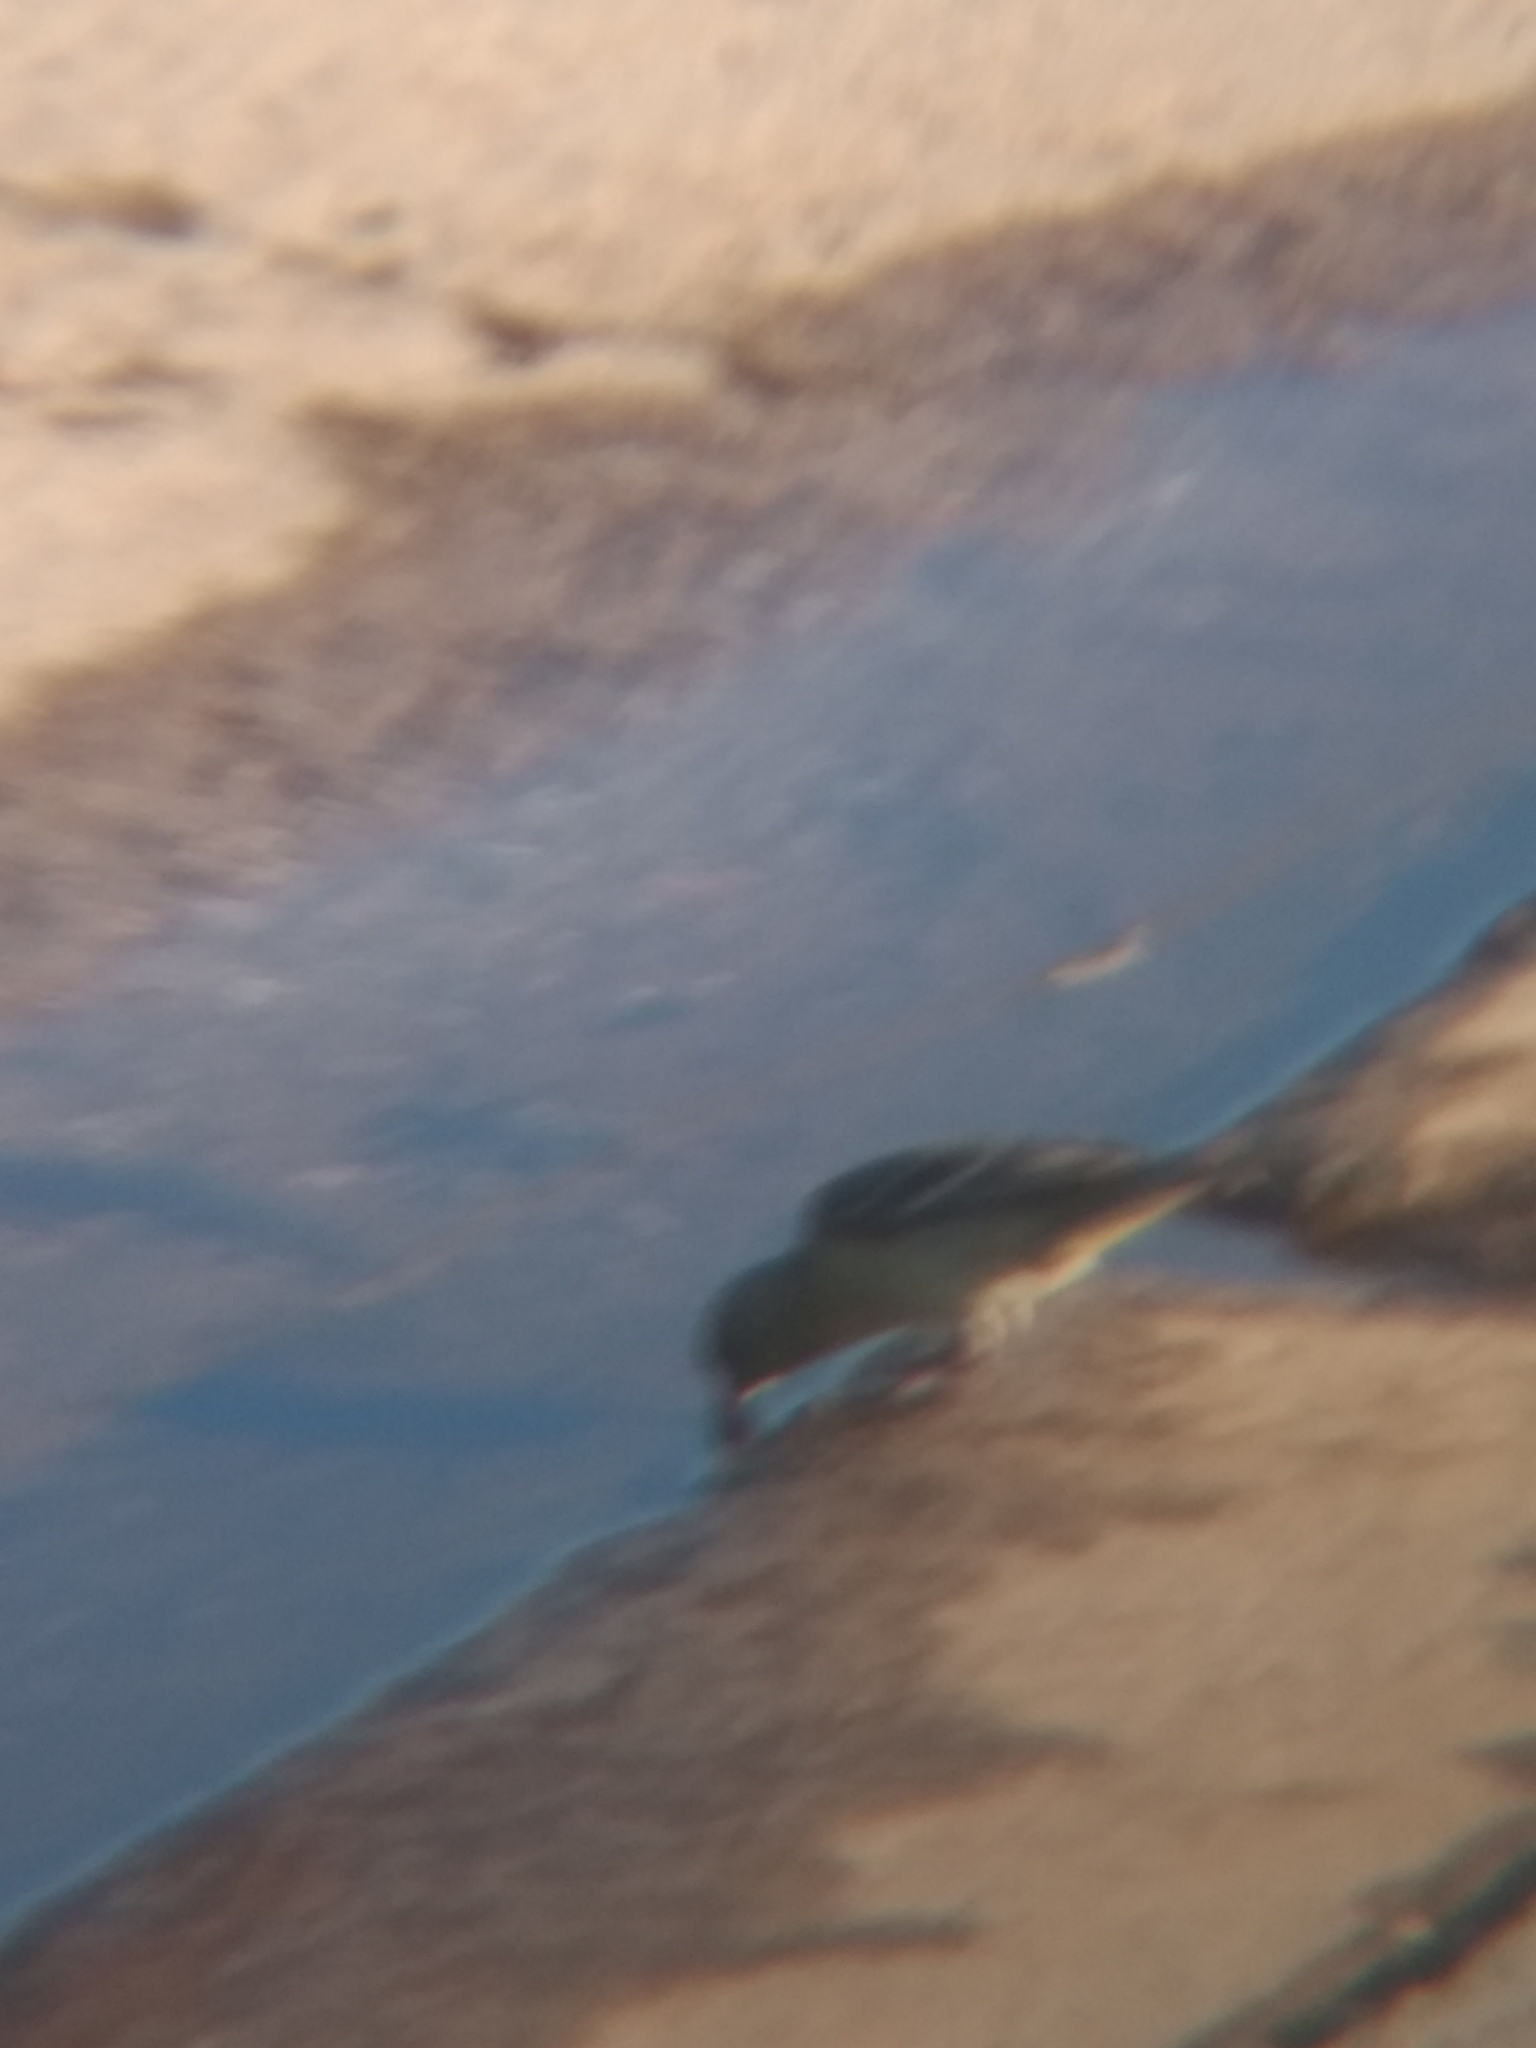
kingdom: Animalia
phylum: Chordata
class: Aves
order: Passeriformes
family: Fringillidae
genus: Spinus
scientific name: Spinus psaltria
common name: Lesser goldfinch
